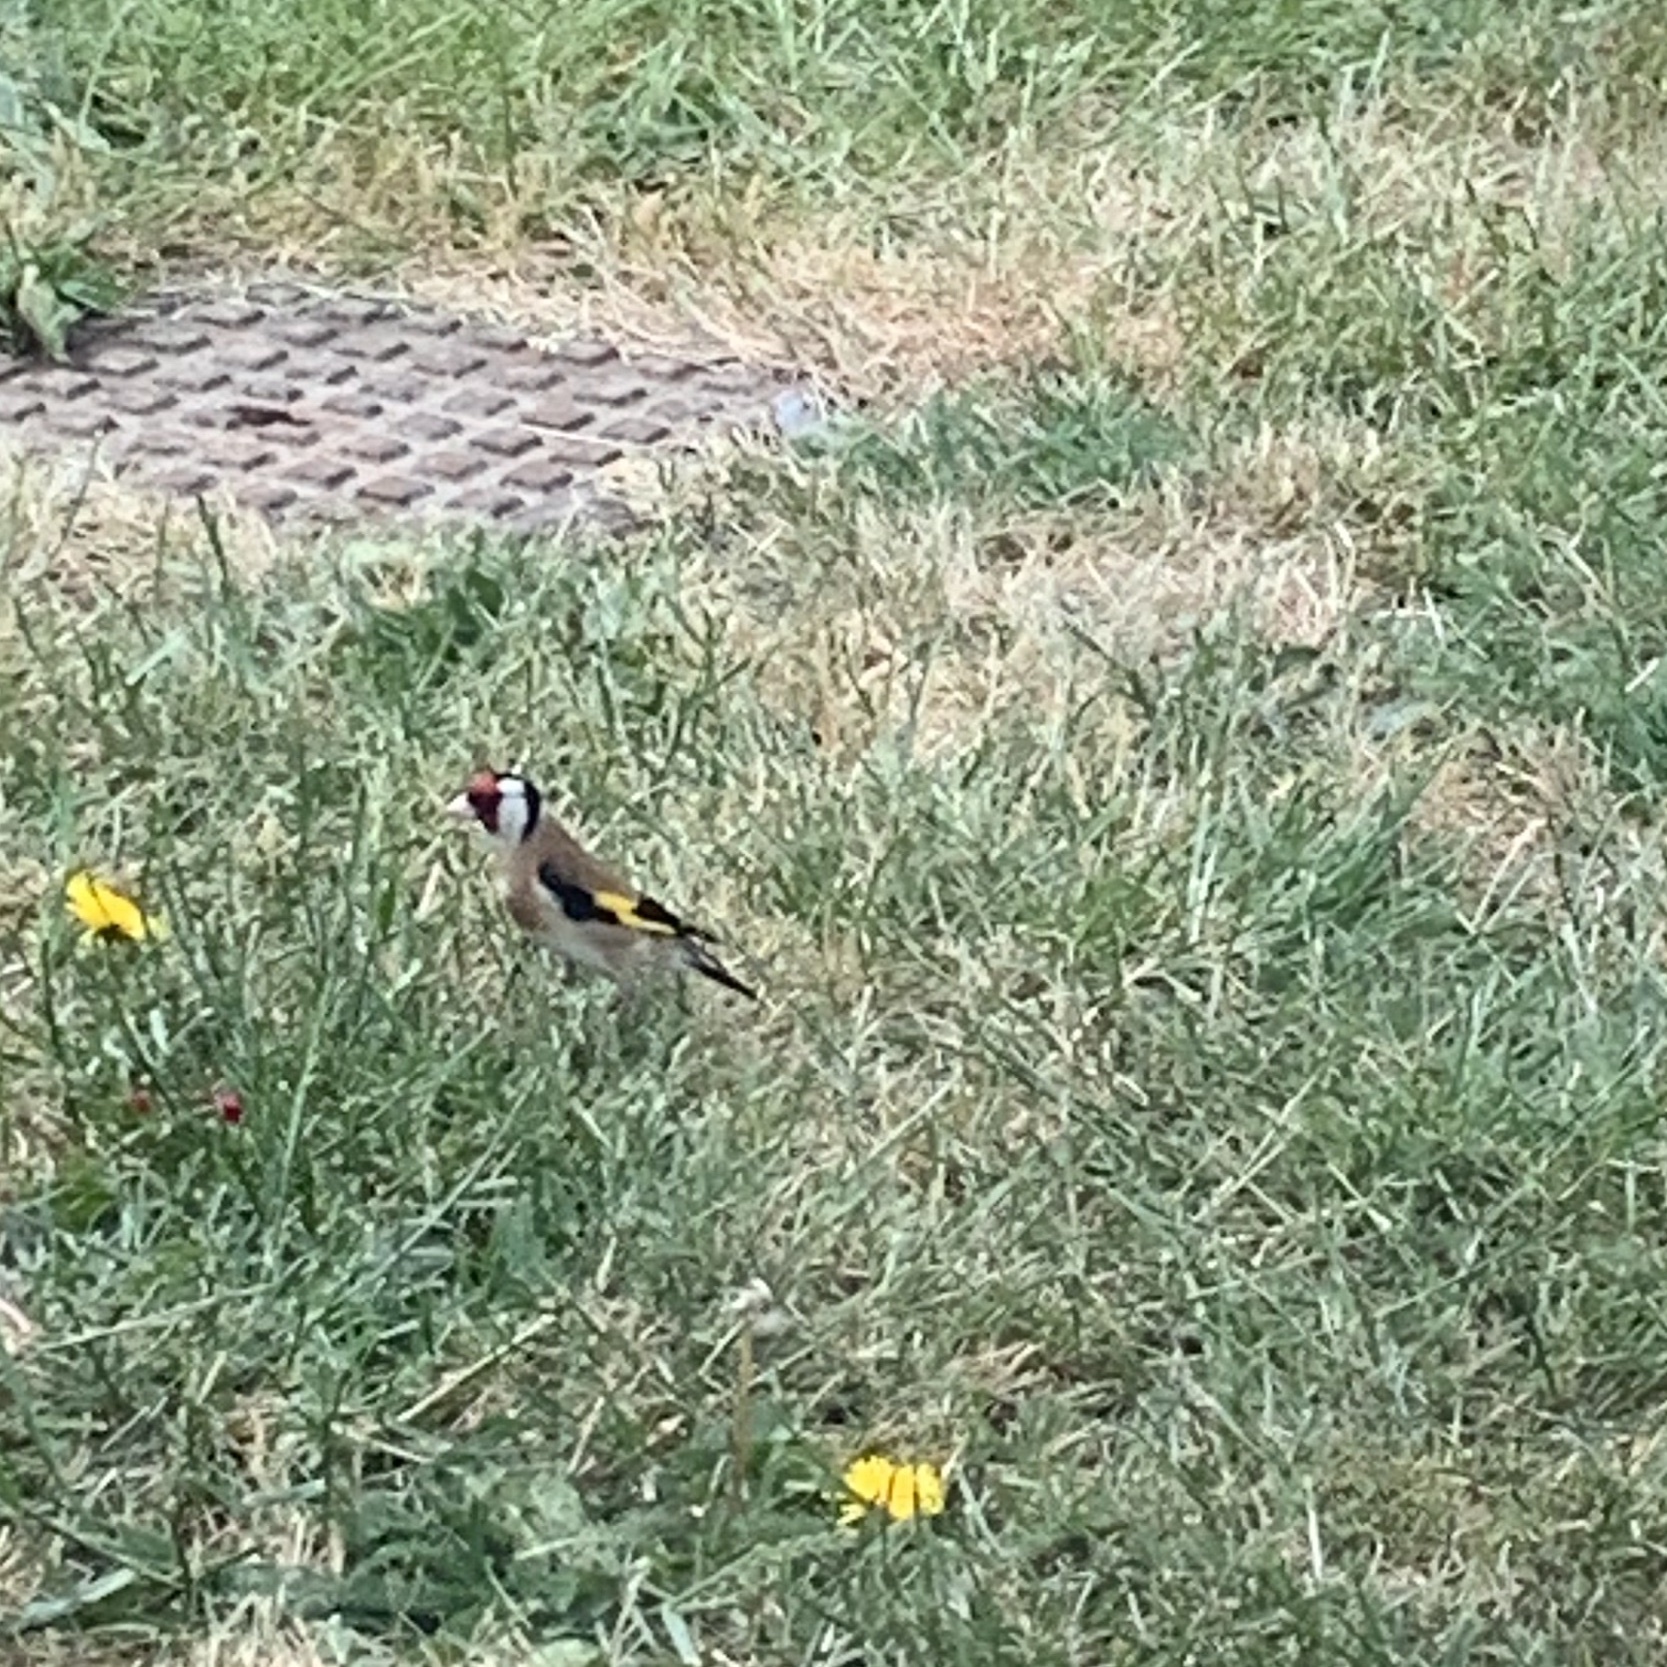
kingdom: Animalia
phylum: Chordata
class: Aves
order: Passeriformes
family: Fringillidae
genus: Carduelis
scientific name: Carduelis carduelis
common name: European goldfinch
